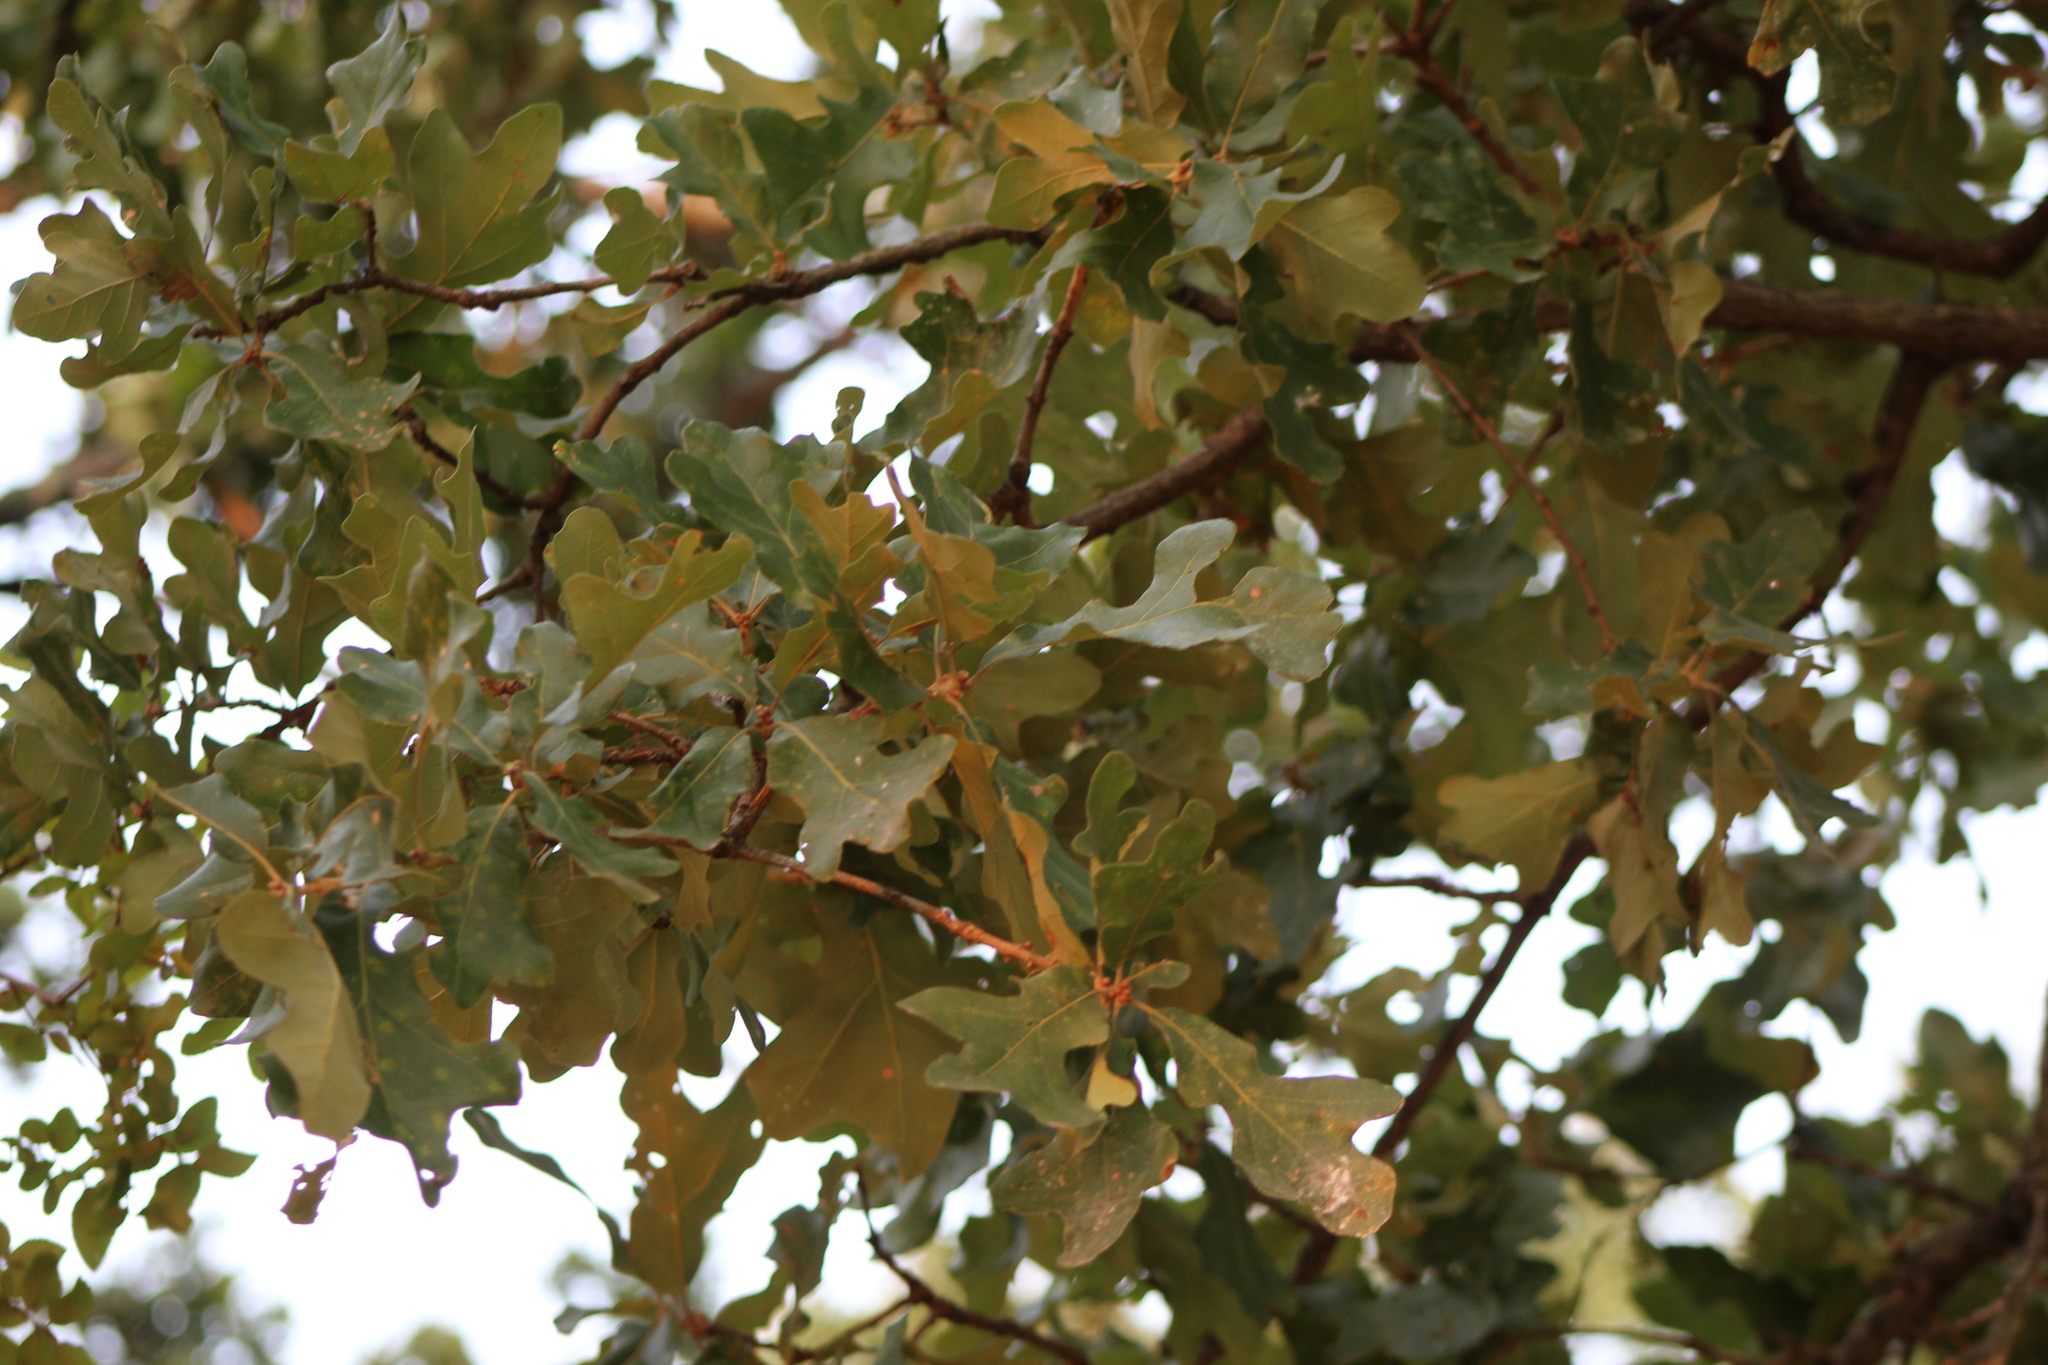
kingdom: Plantae
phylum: Tracheophyta
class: Magnoliopsida
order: Fagales
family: Fagaceae
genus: Quercus
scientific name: Quercus stellata
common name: Post oak
